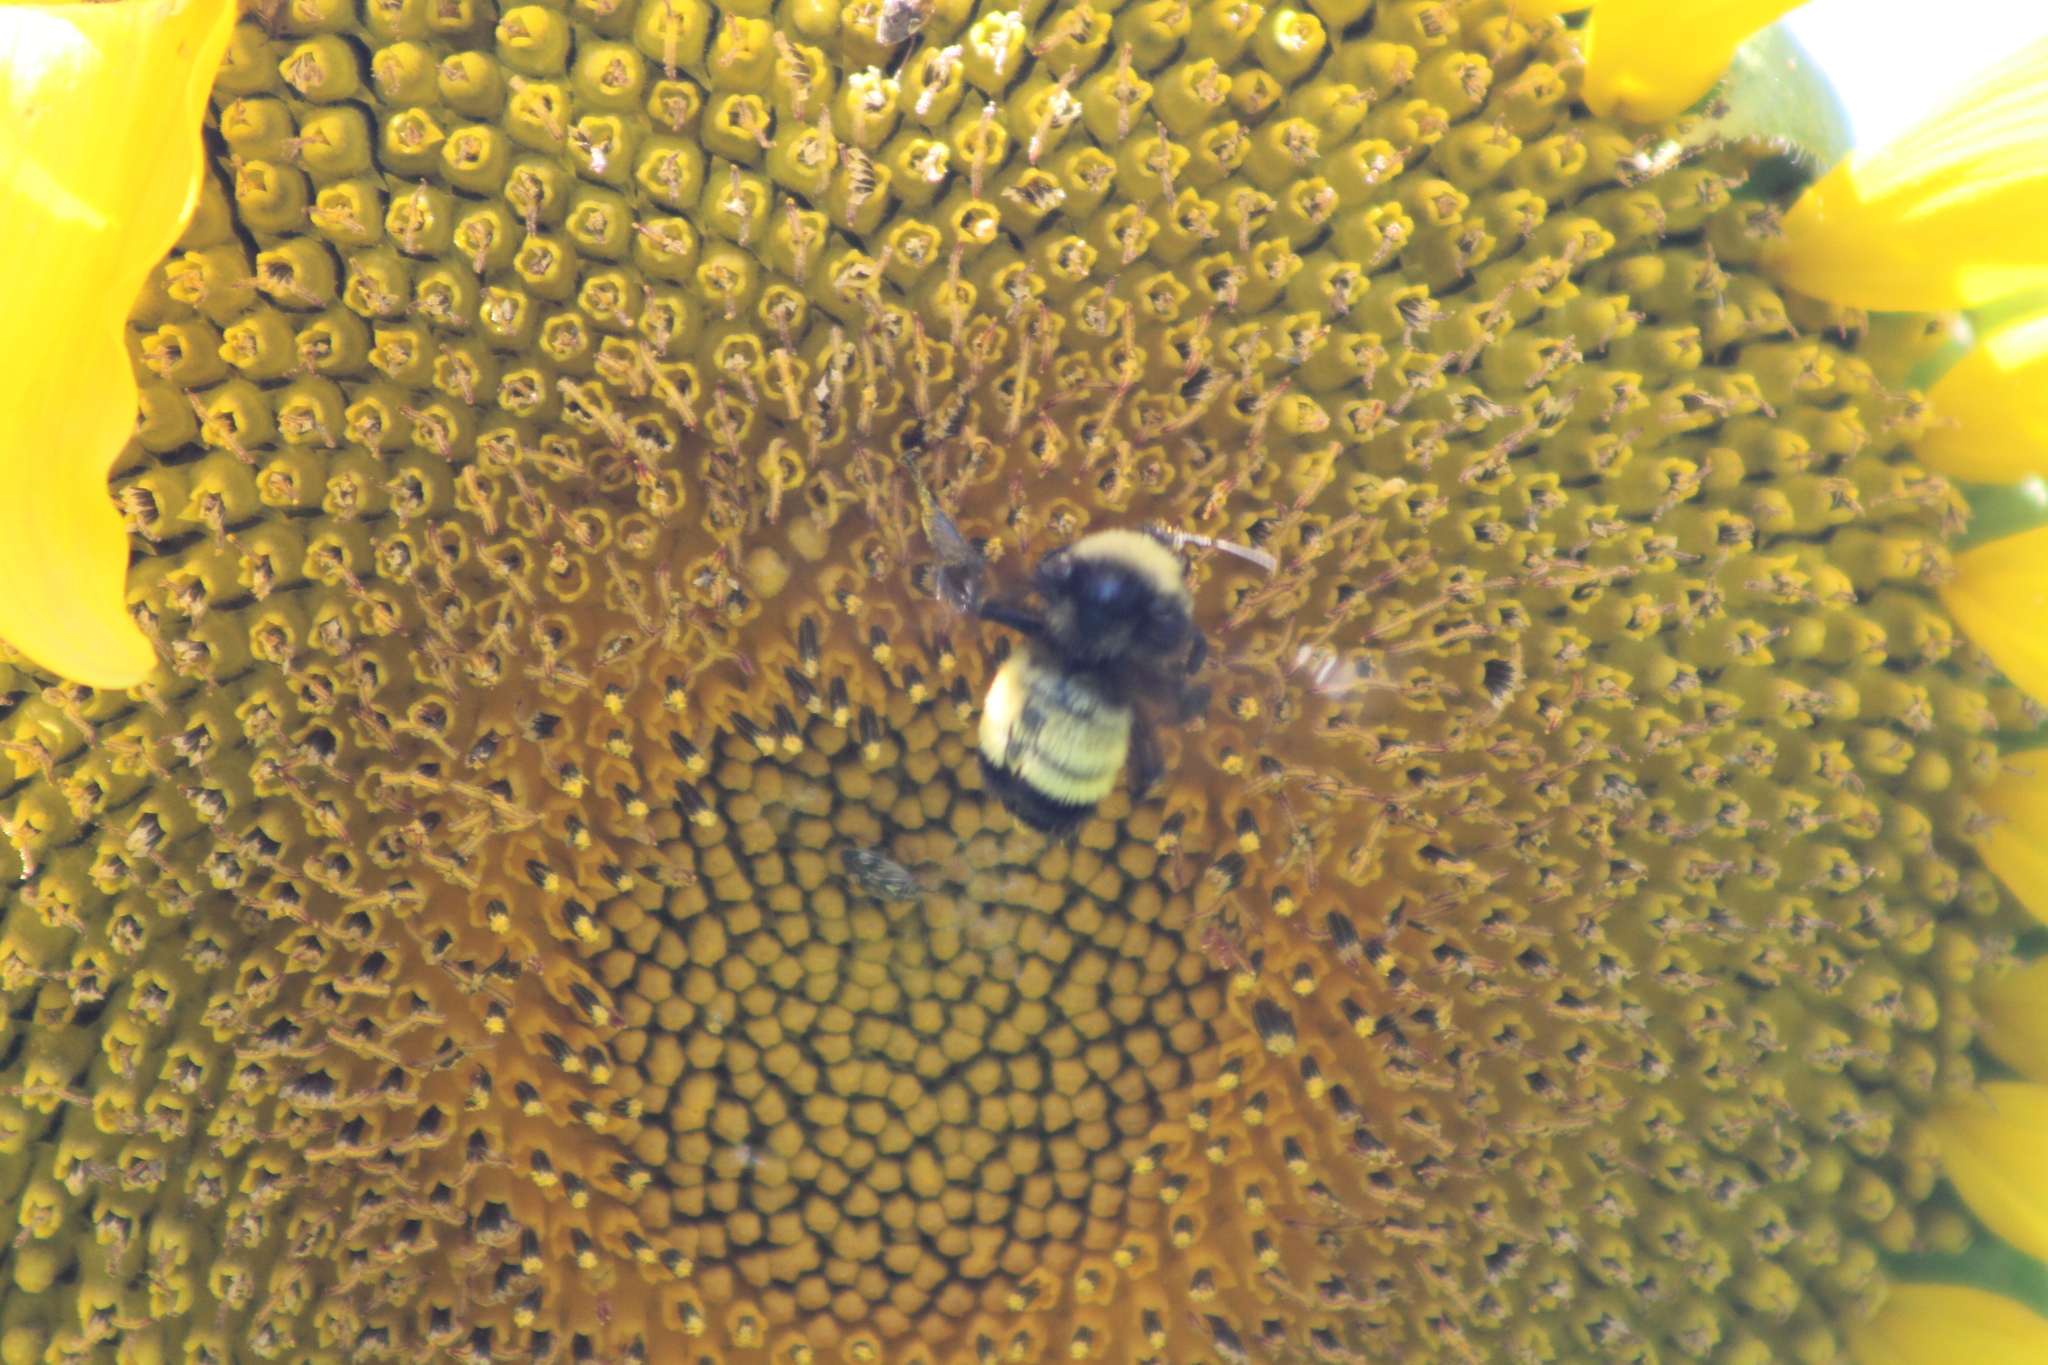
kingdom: Animalia
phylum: Arthropoda
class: Insecta
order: Hymenoptera
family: Apidae
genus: Bombus
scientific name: Bombus pensylvanicus
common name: Bumble bee
